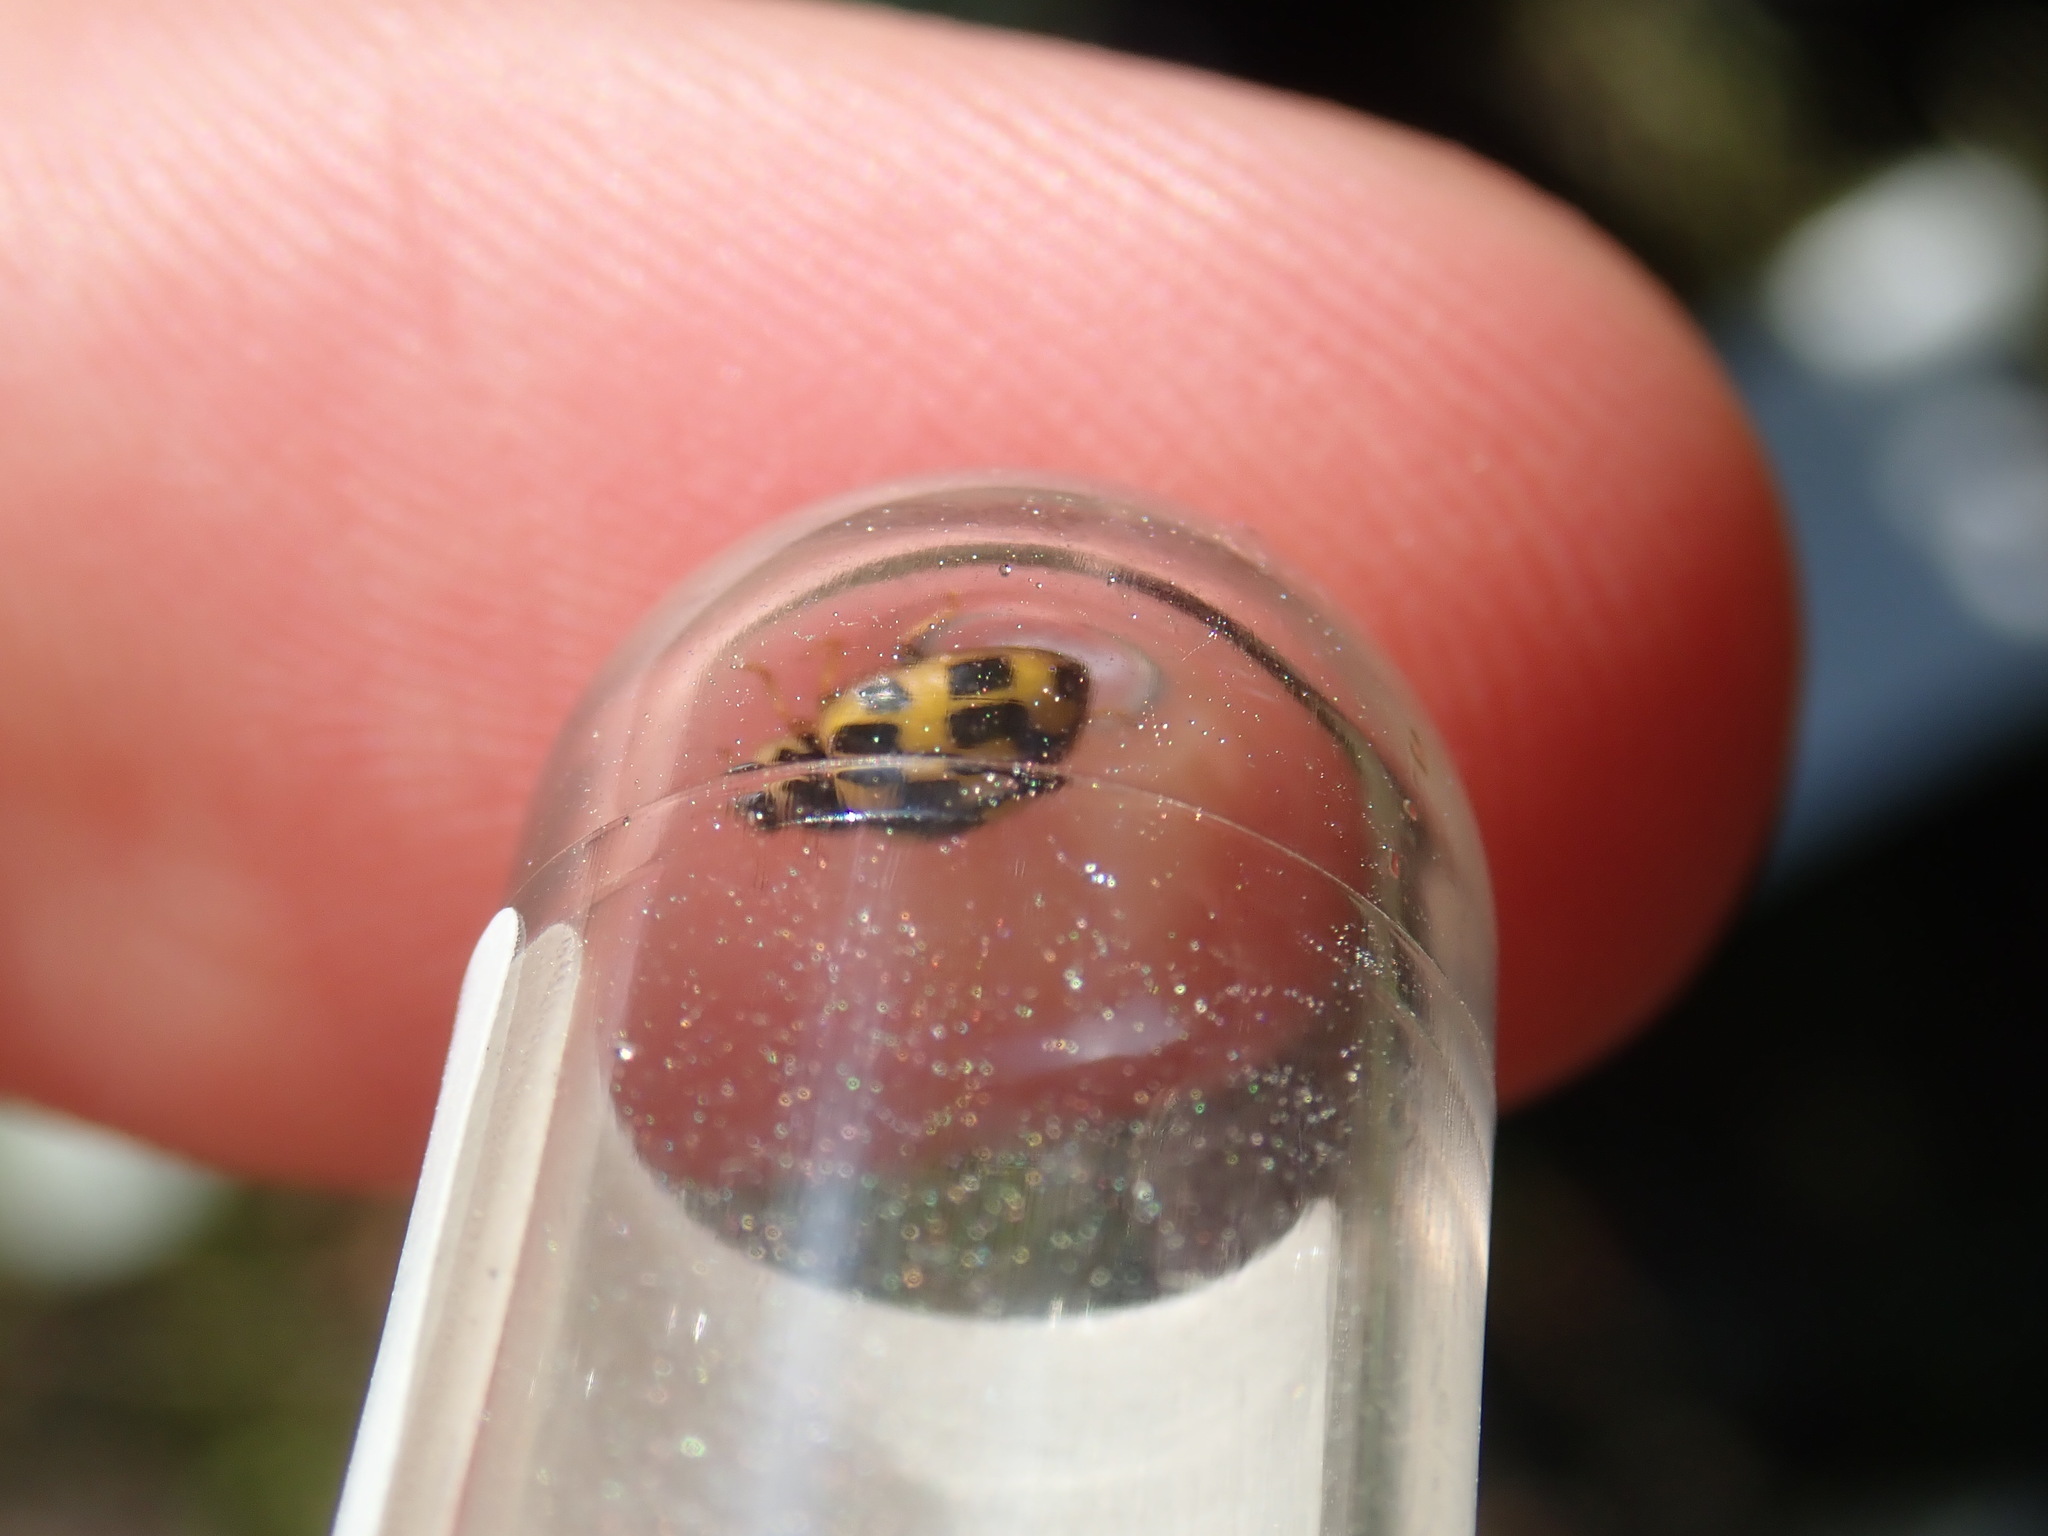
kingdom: Animalia
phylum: Arthropoda
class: Insecta
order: Coleoptera
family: Coccinellidae
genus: Propylaea
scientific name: Propylaea quatuordecimpunctata
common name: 14-spotted ladybird beetle
